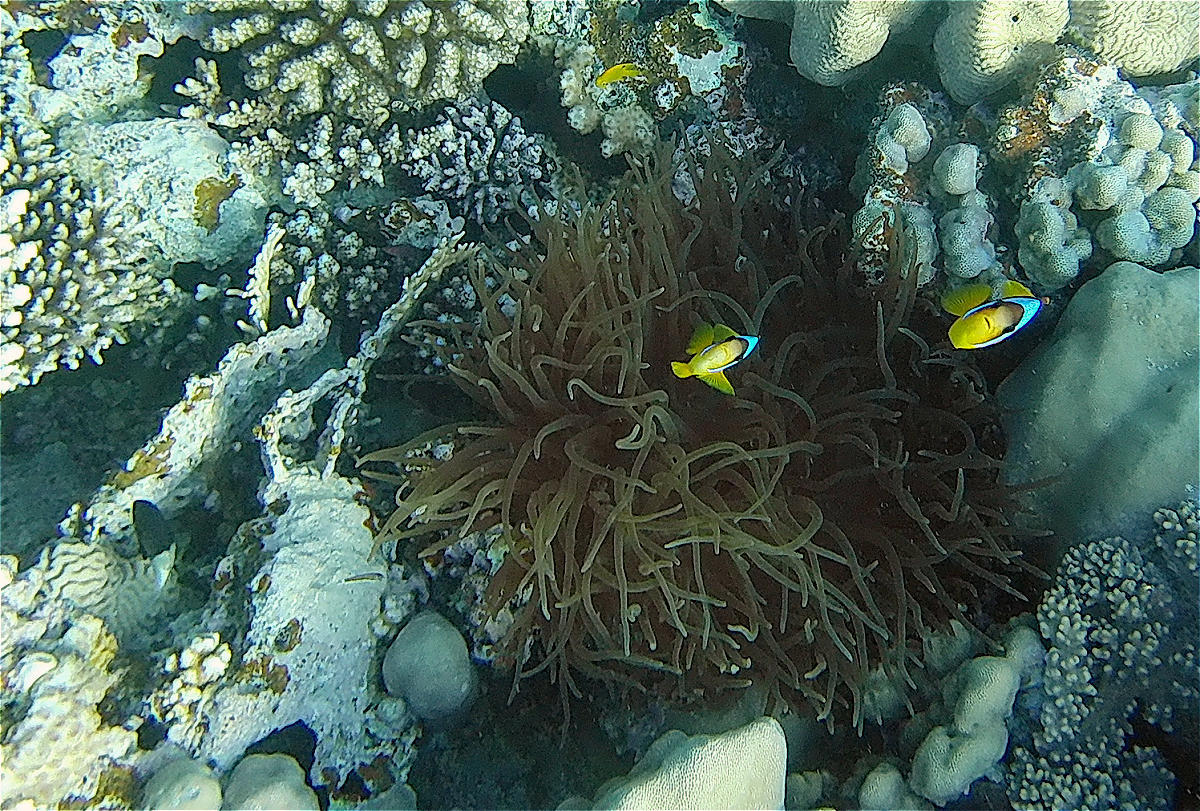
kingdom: Animalia
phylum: Cnidaria
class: Anthozoa
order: Actiniaria
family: Actiniidae
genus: Entacmaea
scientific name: Entacmaea quadricolor
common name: Bulb tentacle sea anemone
